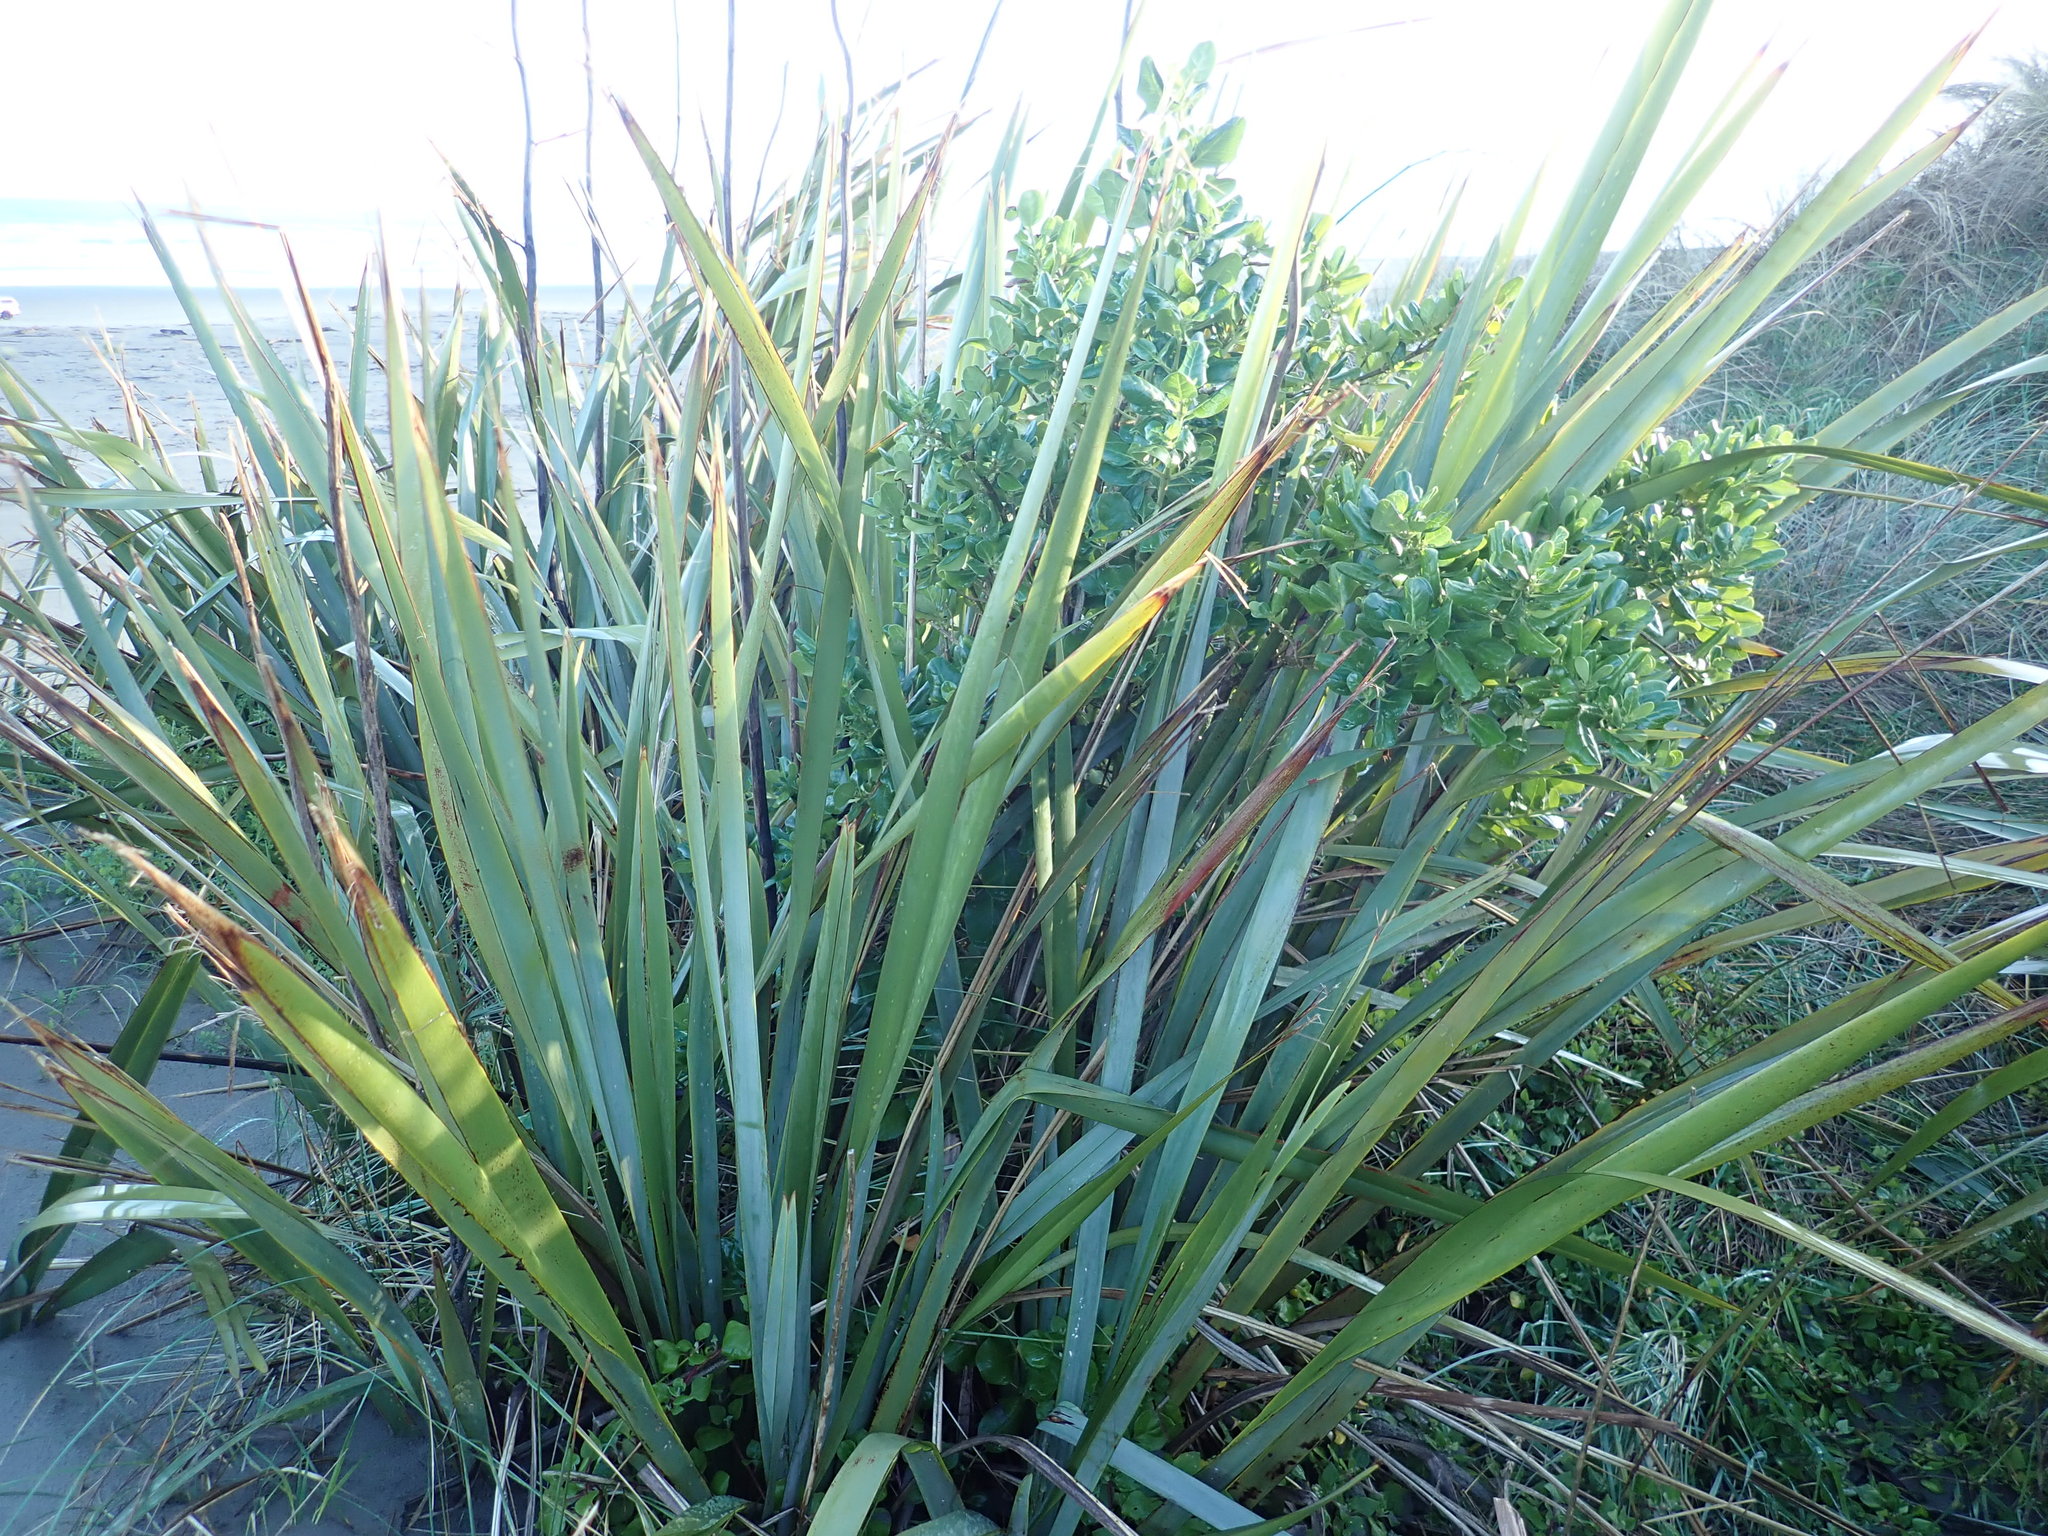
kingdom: Plantae
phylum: Tracheophyta
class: Magnoliopsida
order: Gentianales
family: Rubiaceae
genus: Coprosma
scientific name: Coprosma repens
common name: Tree bedstraw
